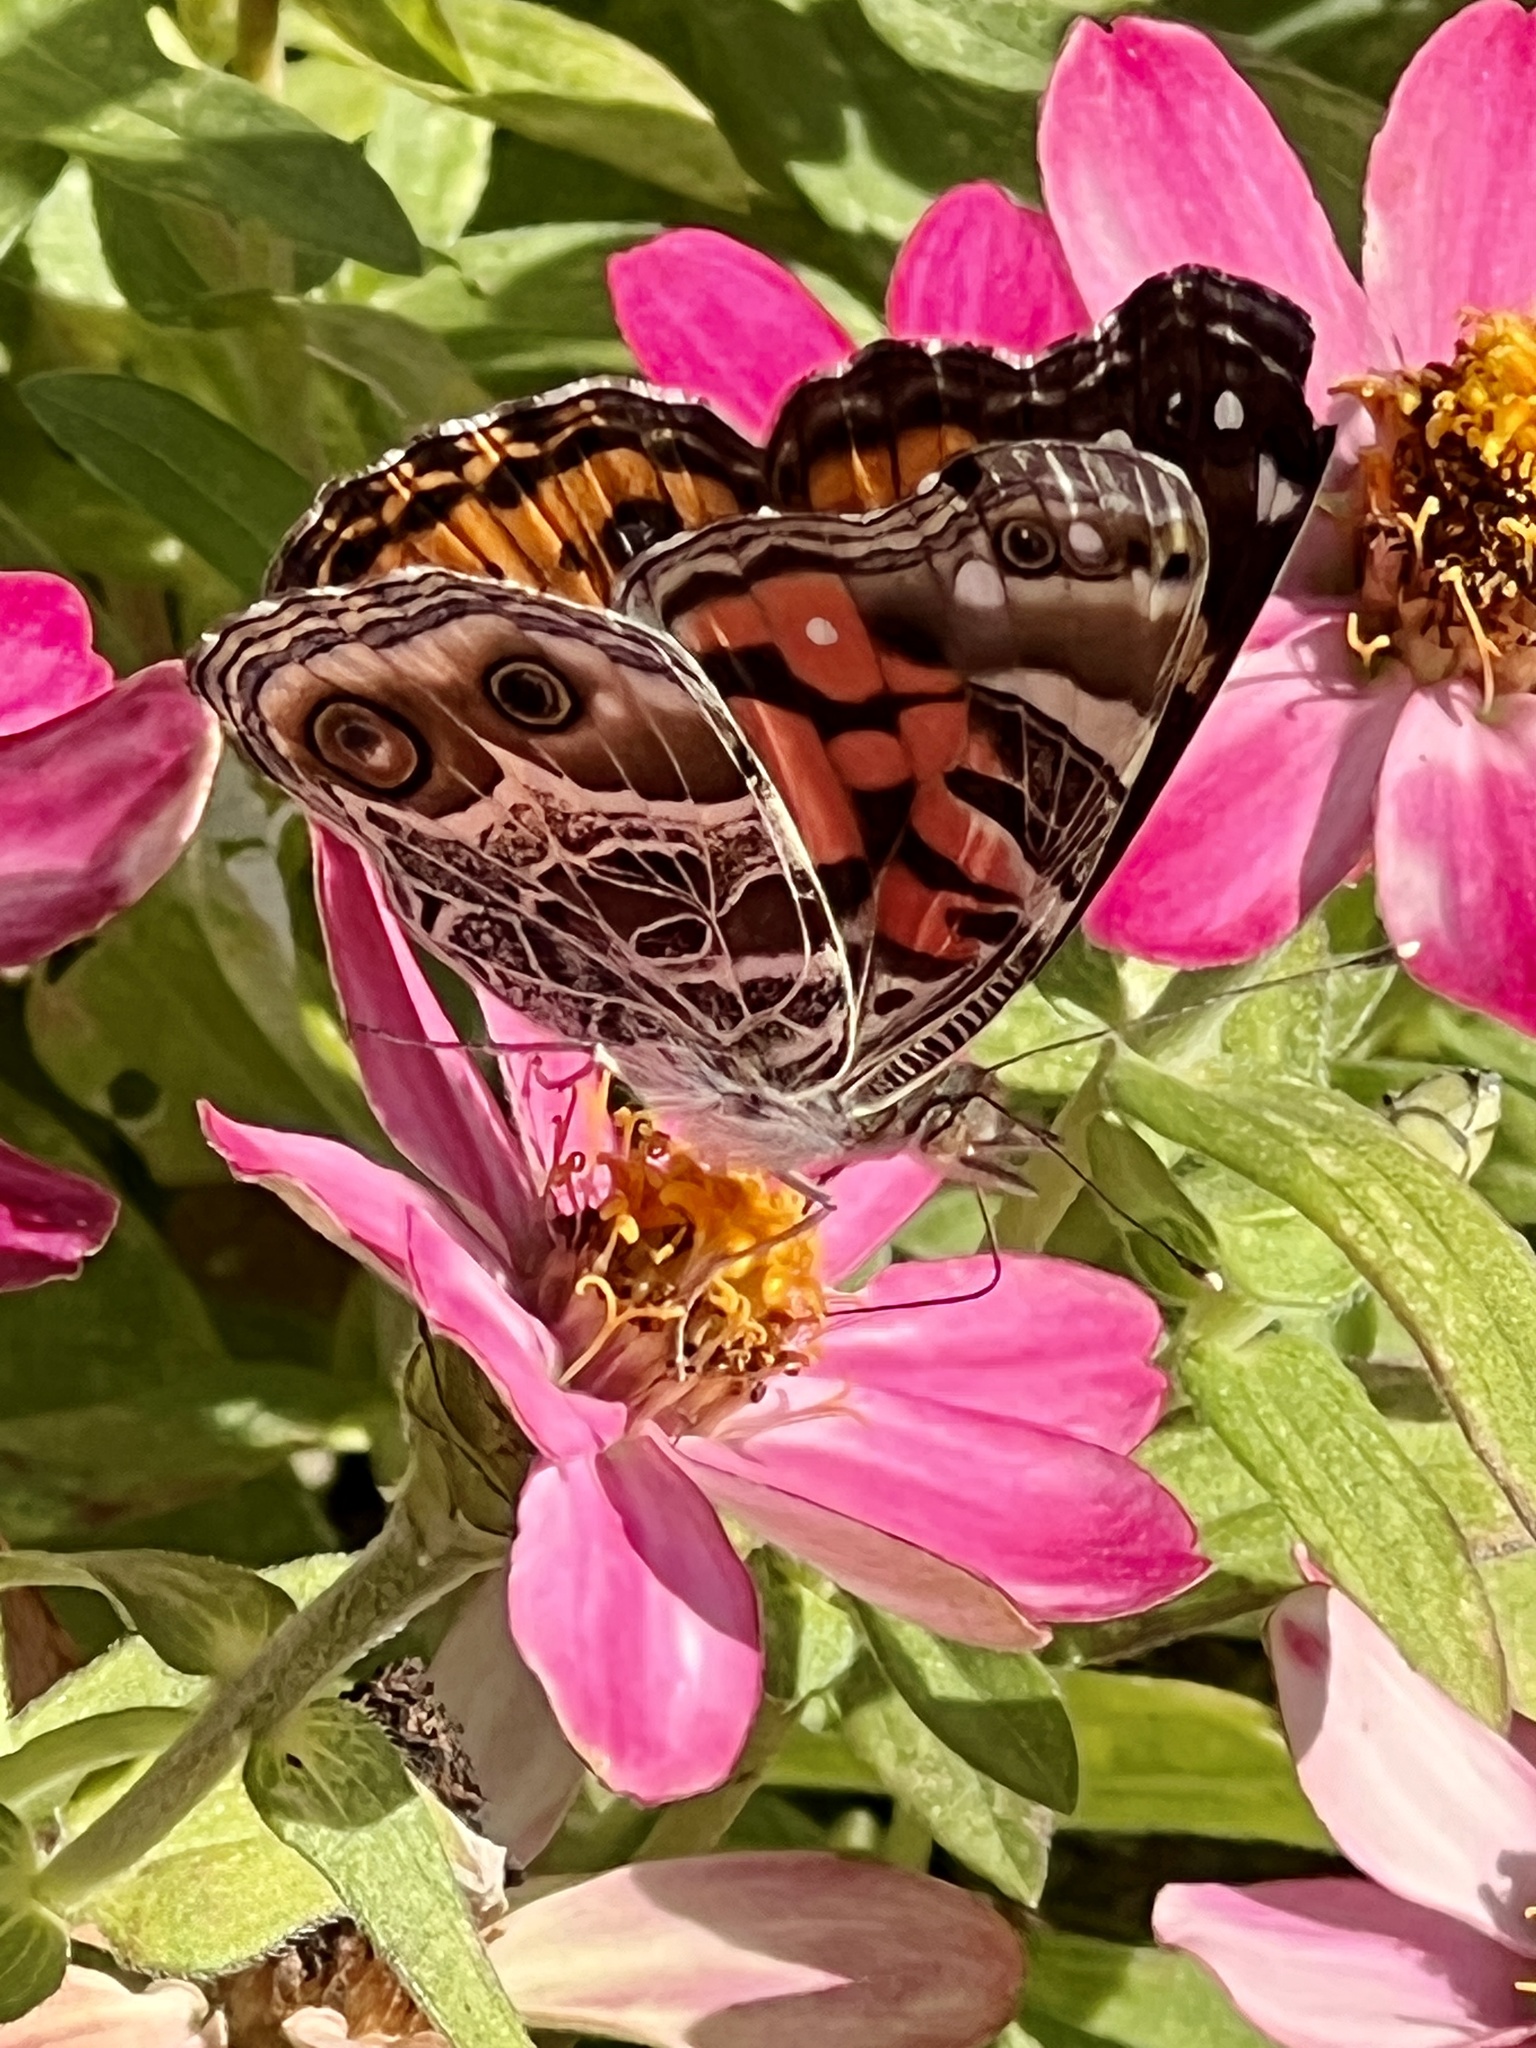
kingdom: Animalia
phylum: Arthropoda
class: Insecta
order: Lepidoptera
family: Nymphalidae
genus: Vanessa
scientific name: Vanessa virginiensis
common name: American lady
